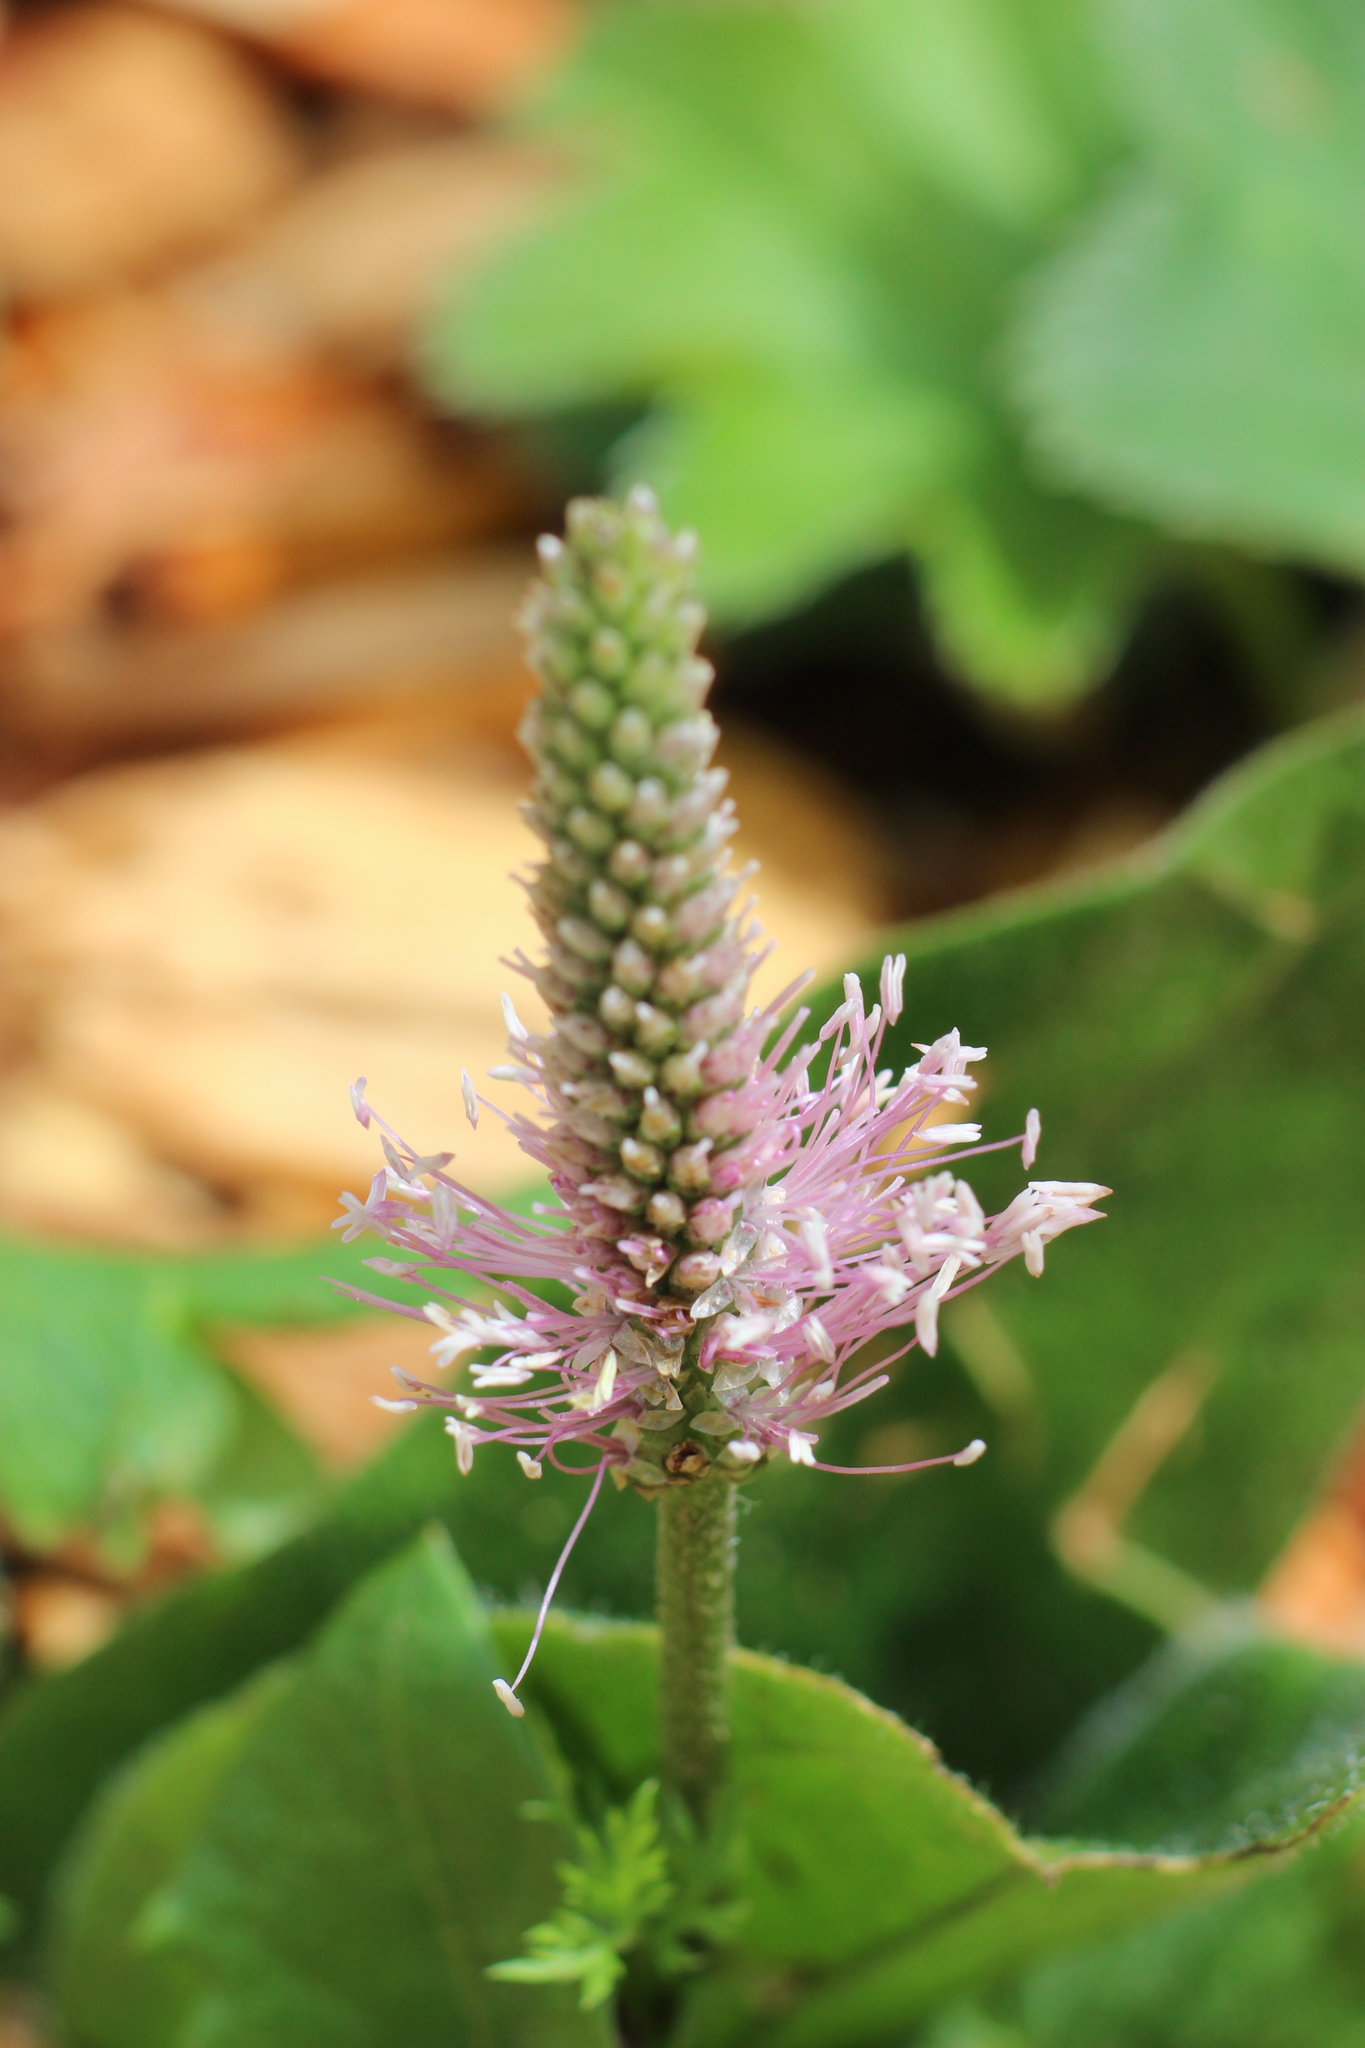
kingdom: Plantae
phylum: Tracheophyta
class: Magnoliopsida
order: Lamiales
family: Plantaginaceae
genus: Plantago
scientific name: Plantago media
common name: Hoary plantain
